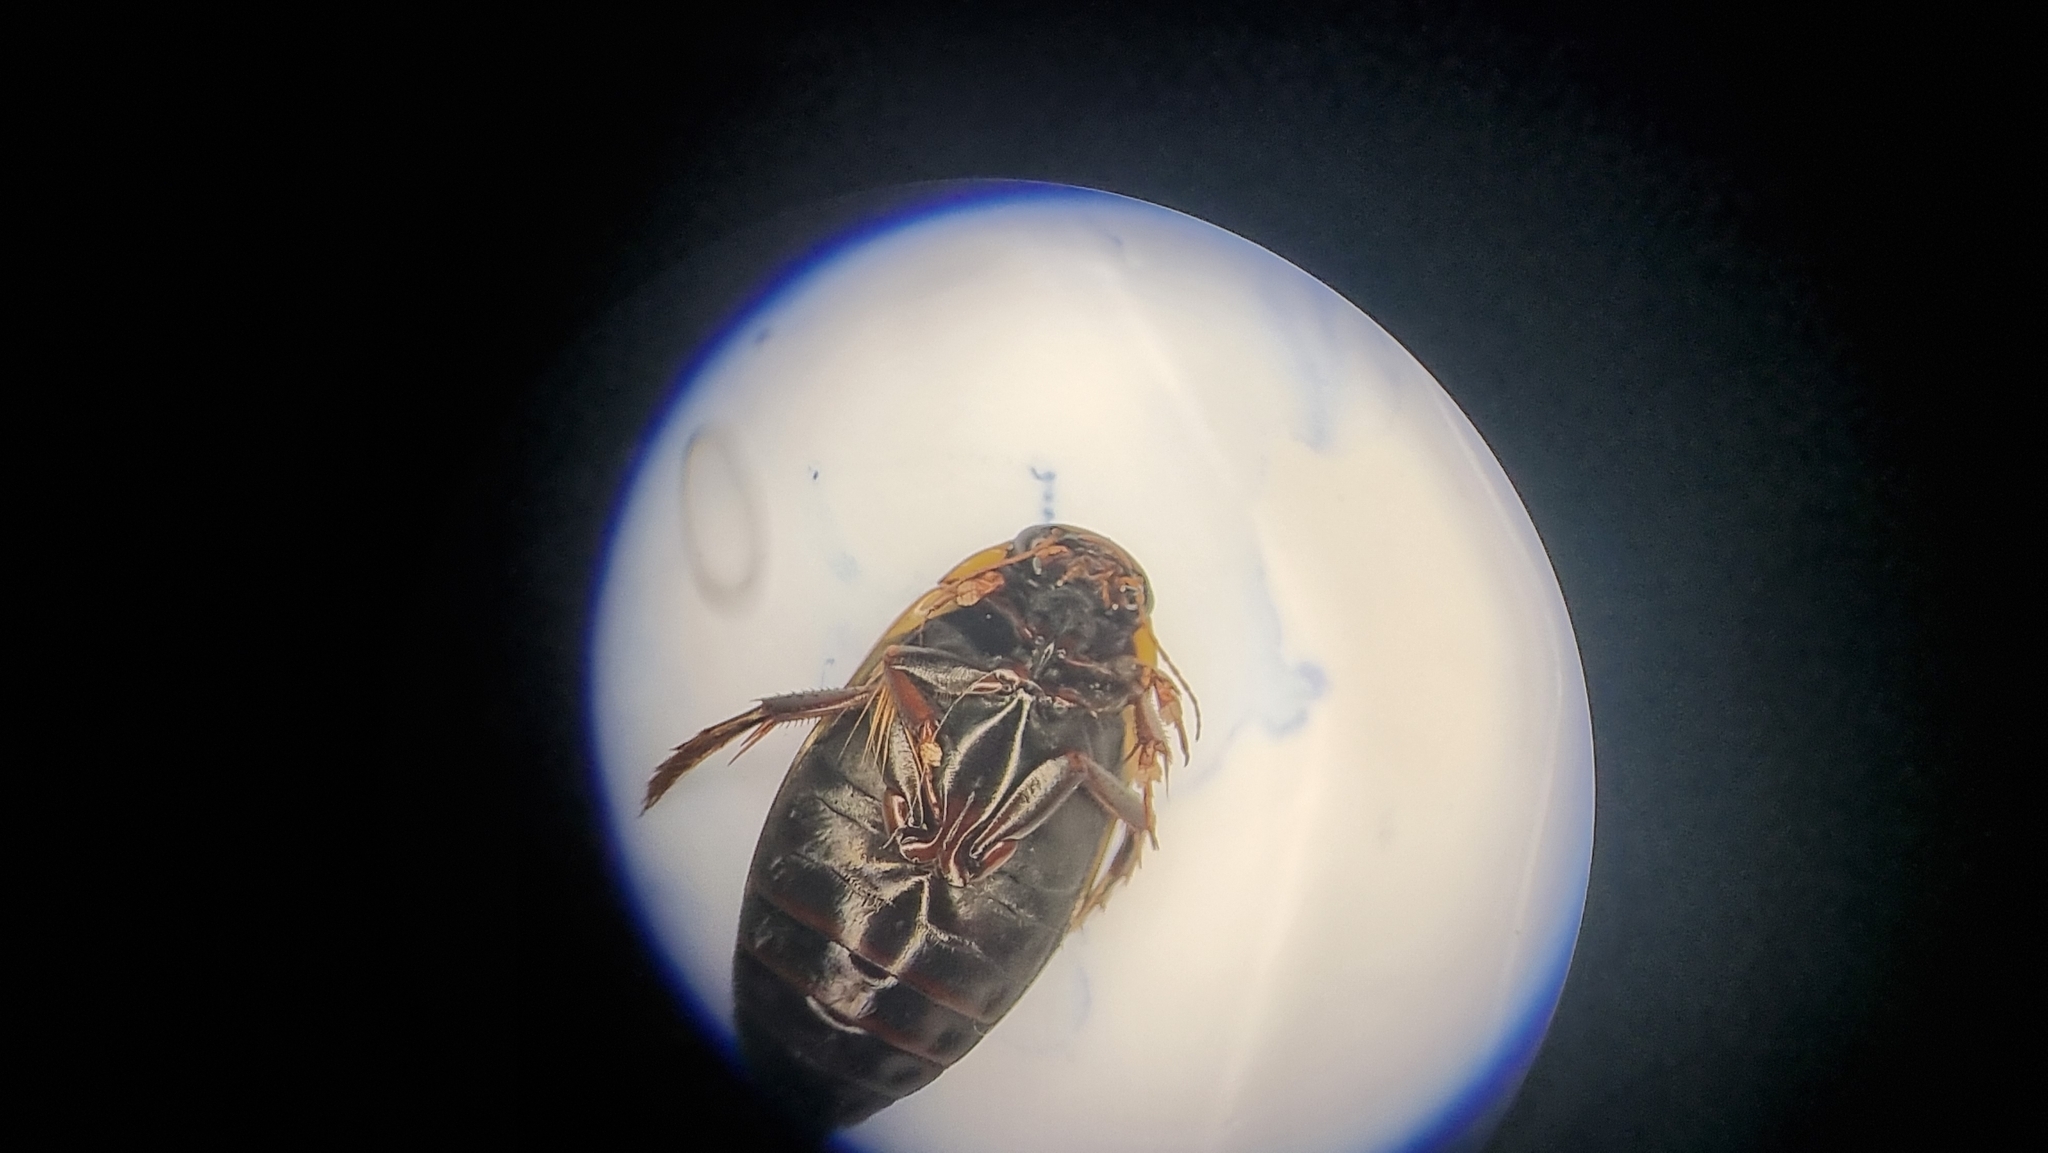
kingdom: Animalia
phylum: Arthropoda
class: Insecta
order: Coleoptera
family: Dytiscidae
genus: Colymbetes
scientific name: Colymbetes fuscus
